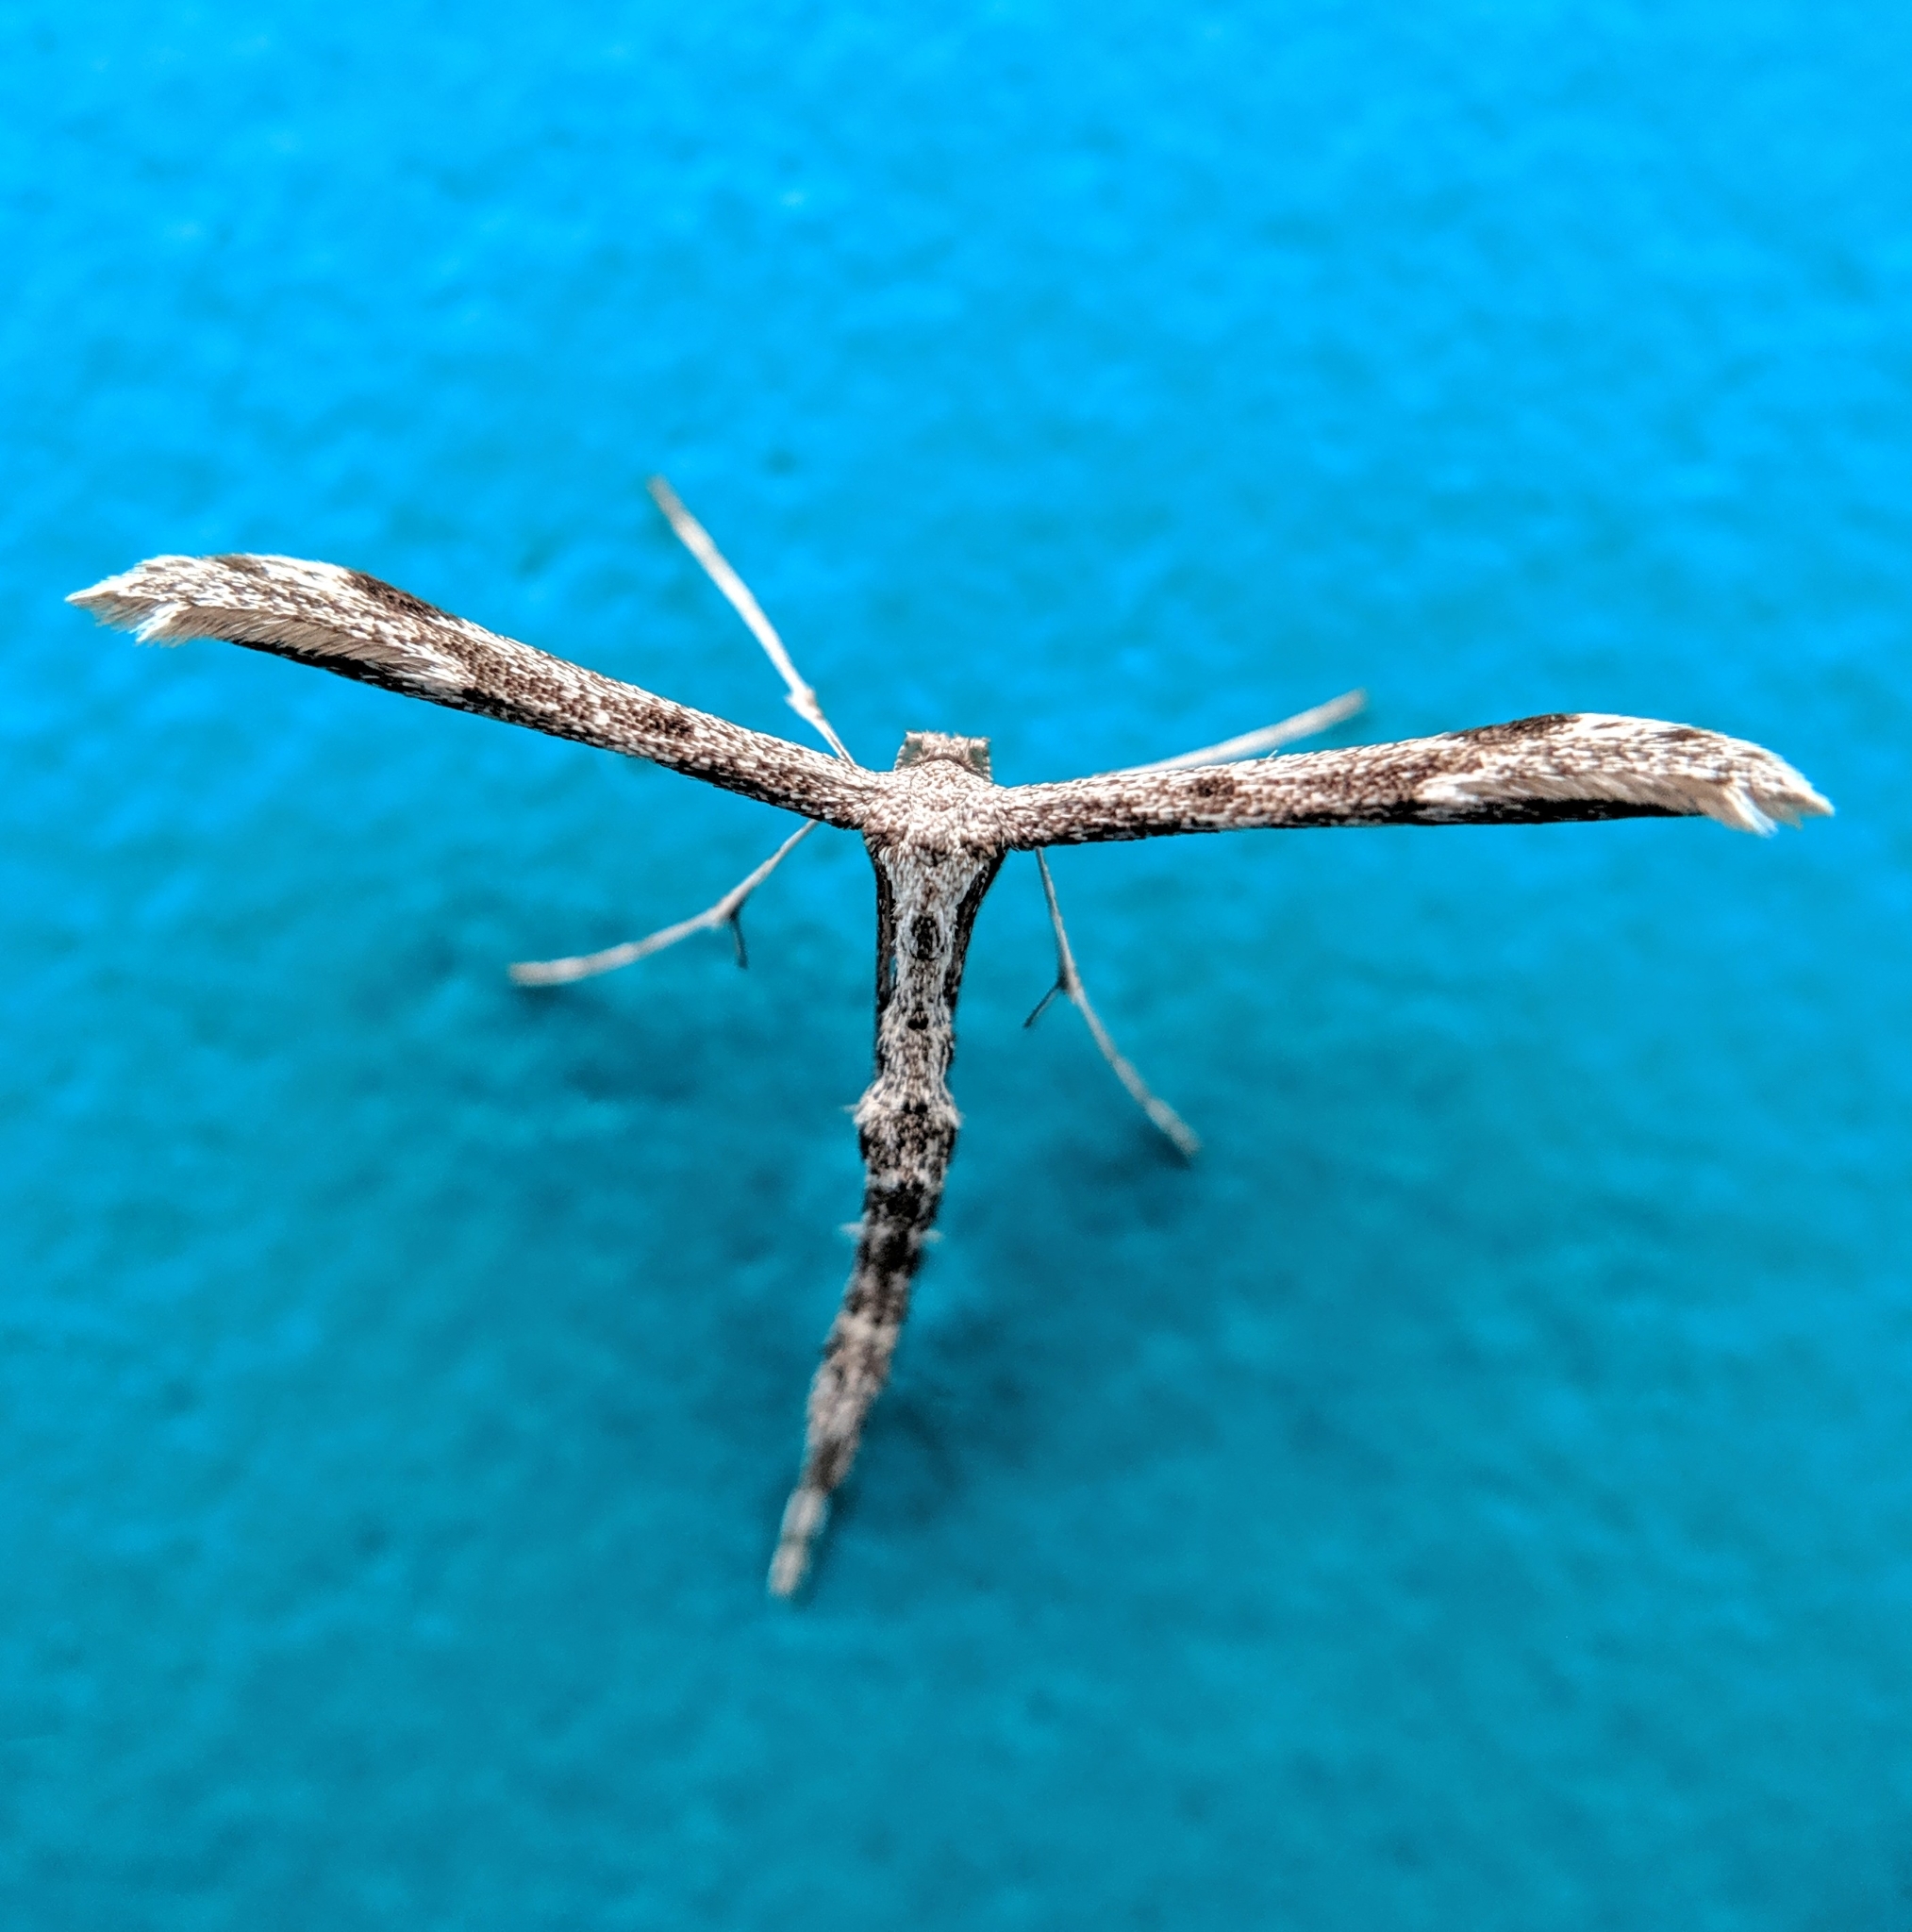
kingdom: Animalia
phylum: Arthropoda
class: Insecta
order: Lepidoptera
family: Pterophoridae
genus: Hellinsia
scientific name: Hellinsia inquinatus
